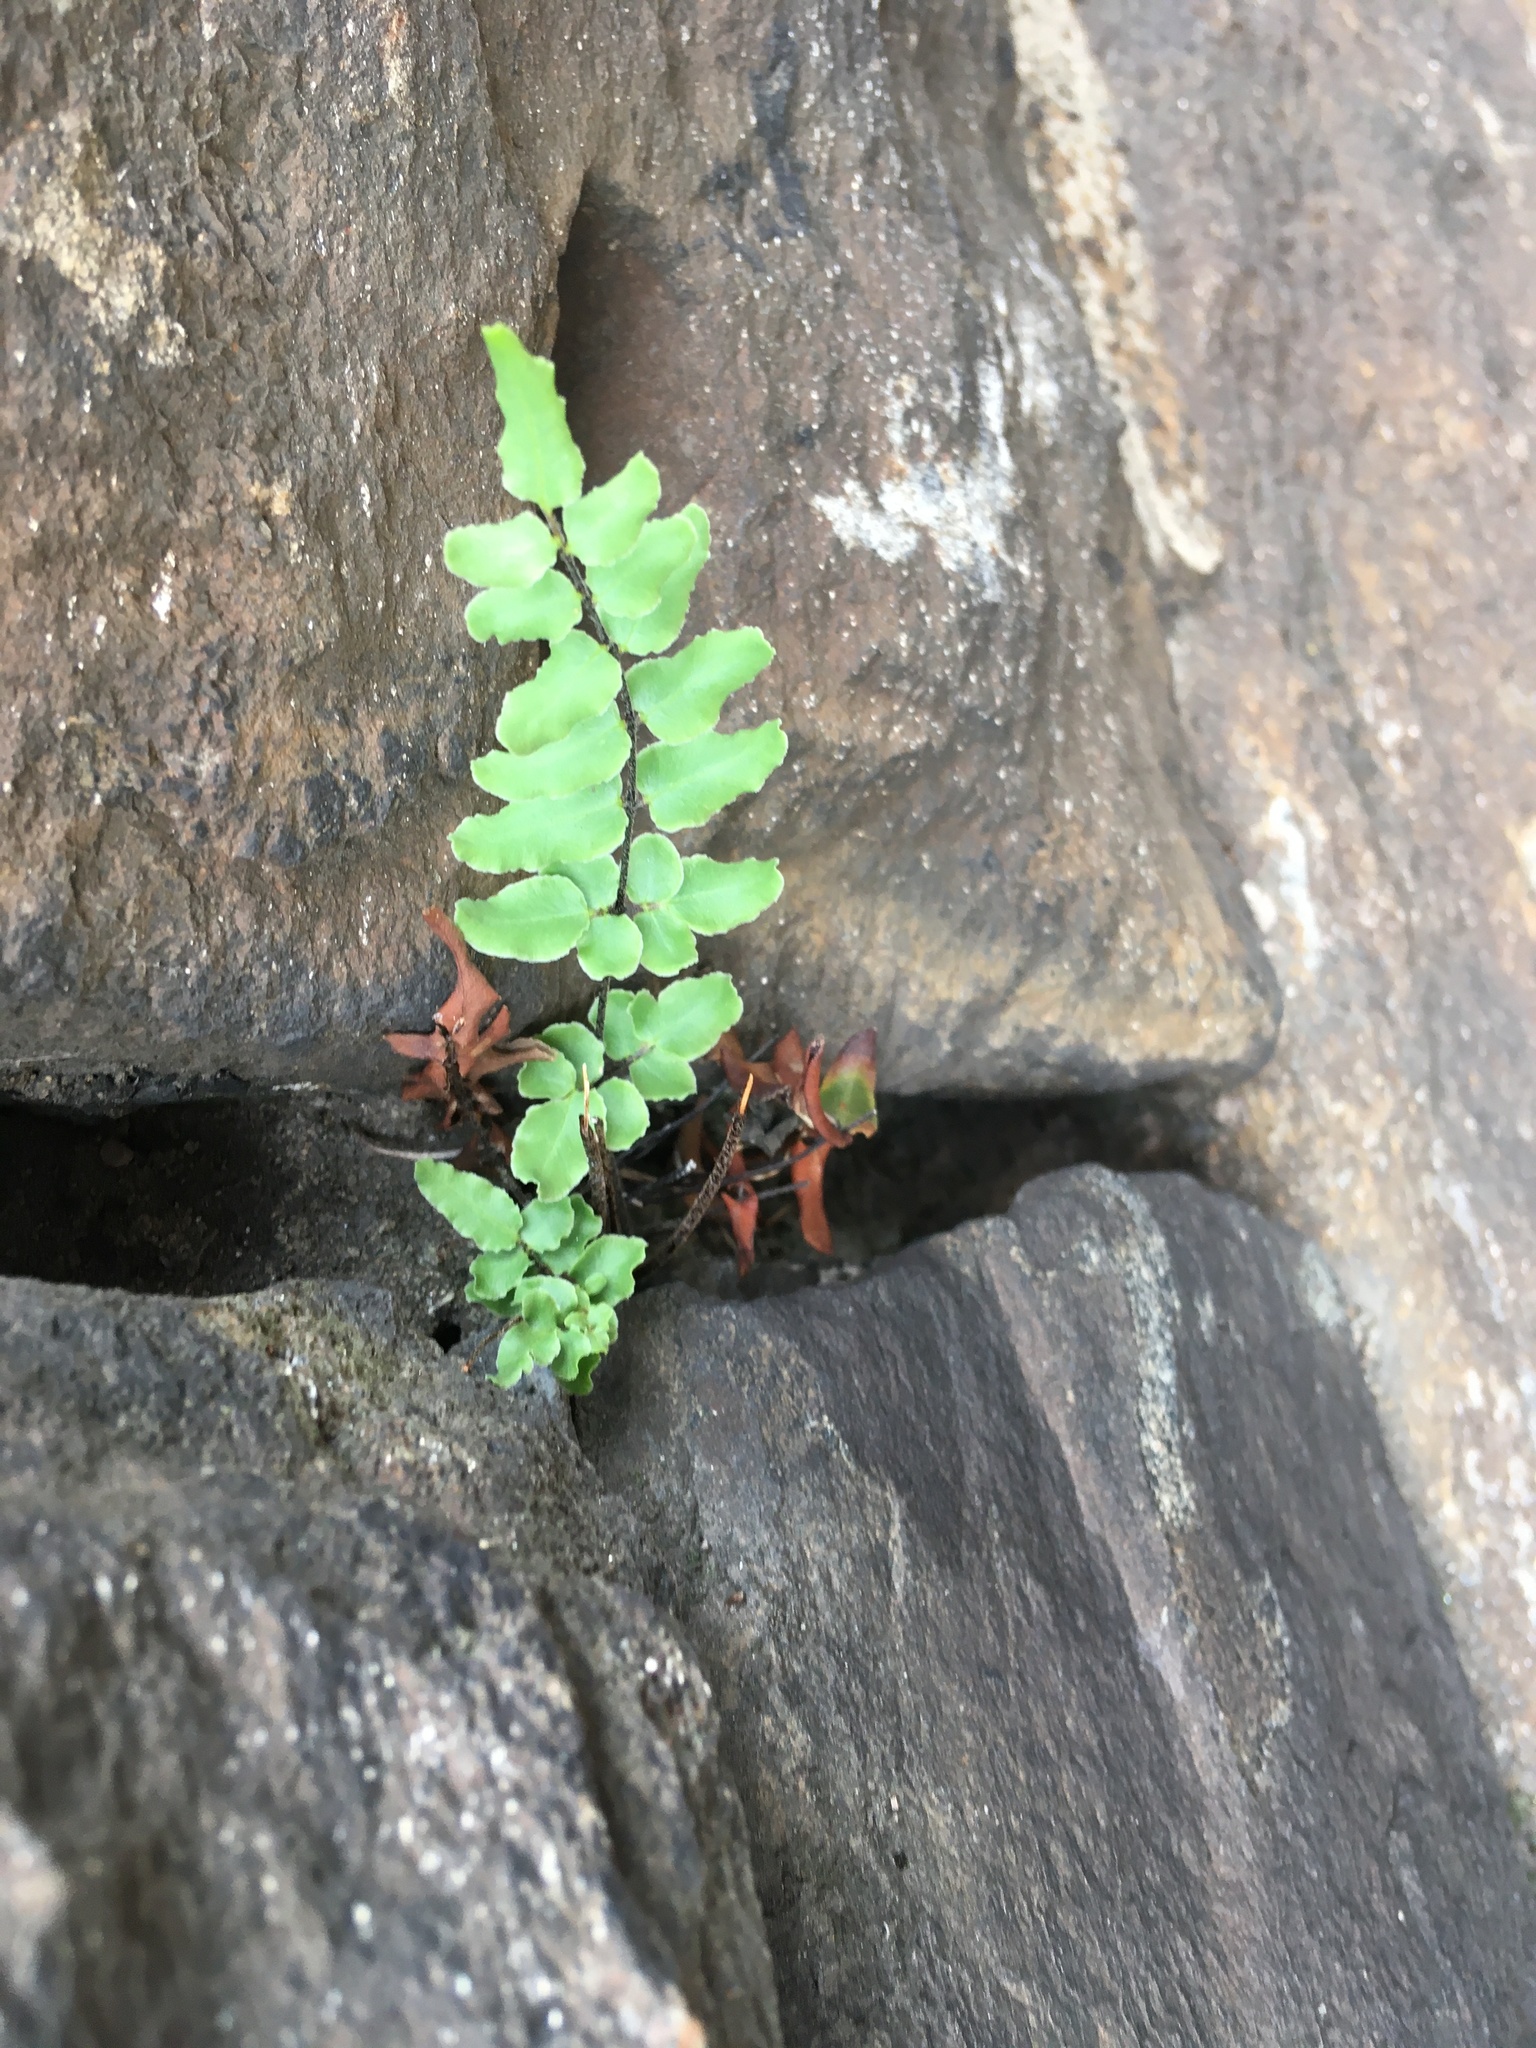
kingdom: Plantae
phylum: Tracheophyta
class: Polypodiopsida
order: Polypodiales
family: Pteridaceae
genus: Pellaea
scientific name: Pellaea atropurpurea
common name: Hairy cliffbrake
